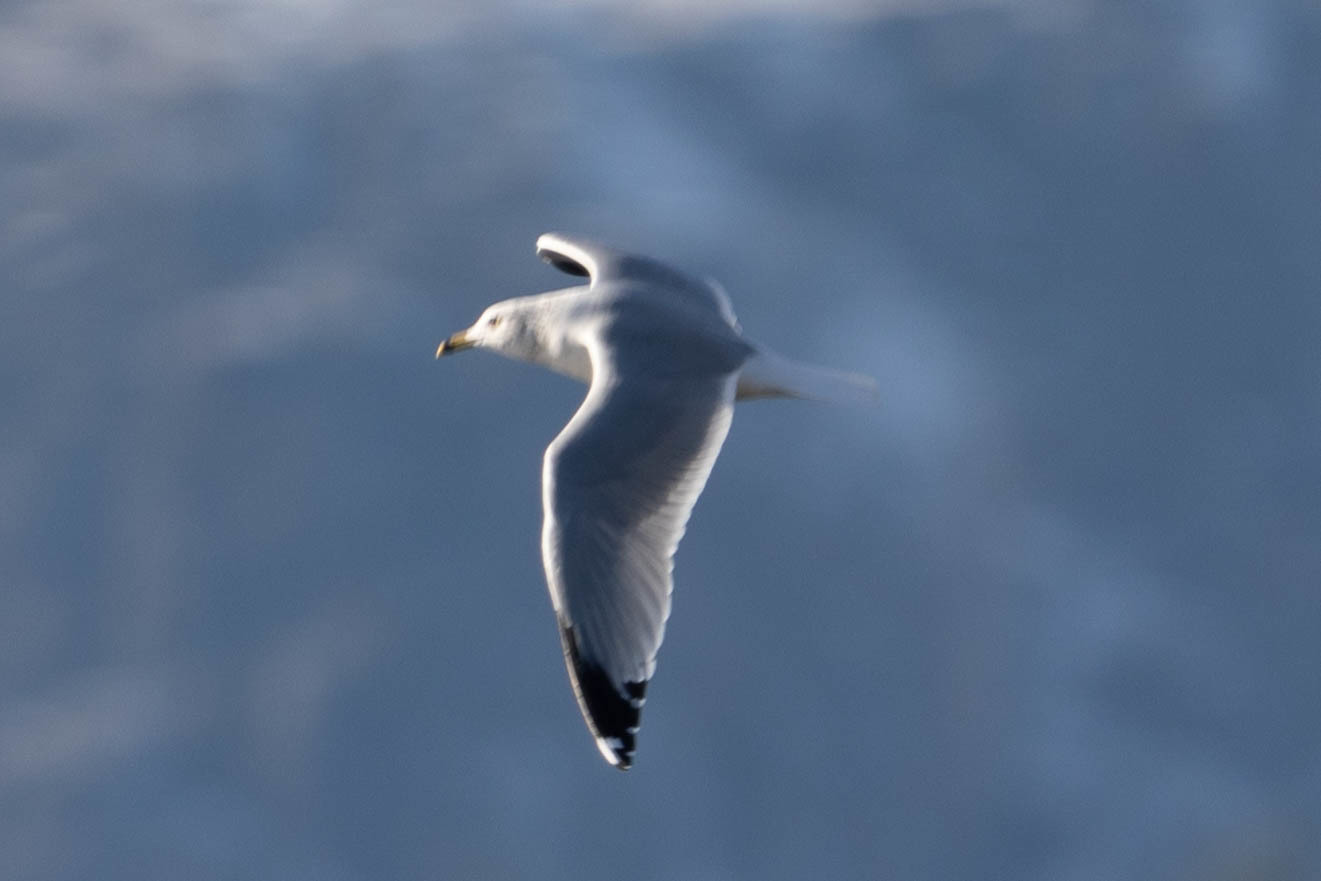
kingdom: Animalia
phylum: Chordata
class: Aves
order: Charadriiformes
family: Laridae
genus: Larus
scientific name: Larus delawarensis
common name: Ring-billed gull
